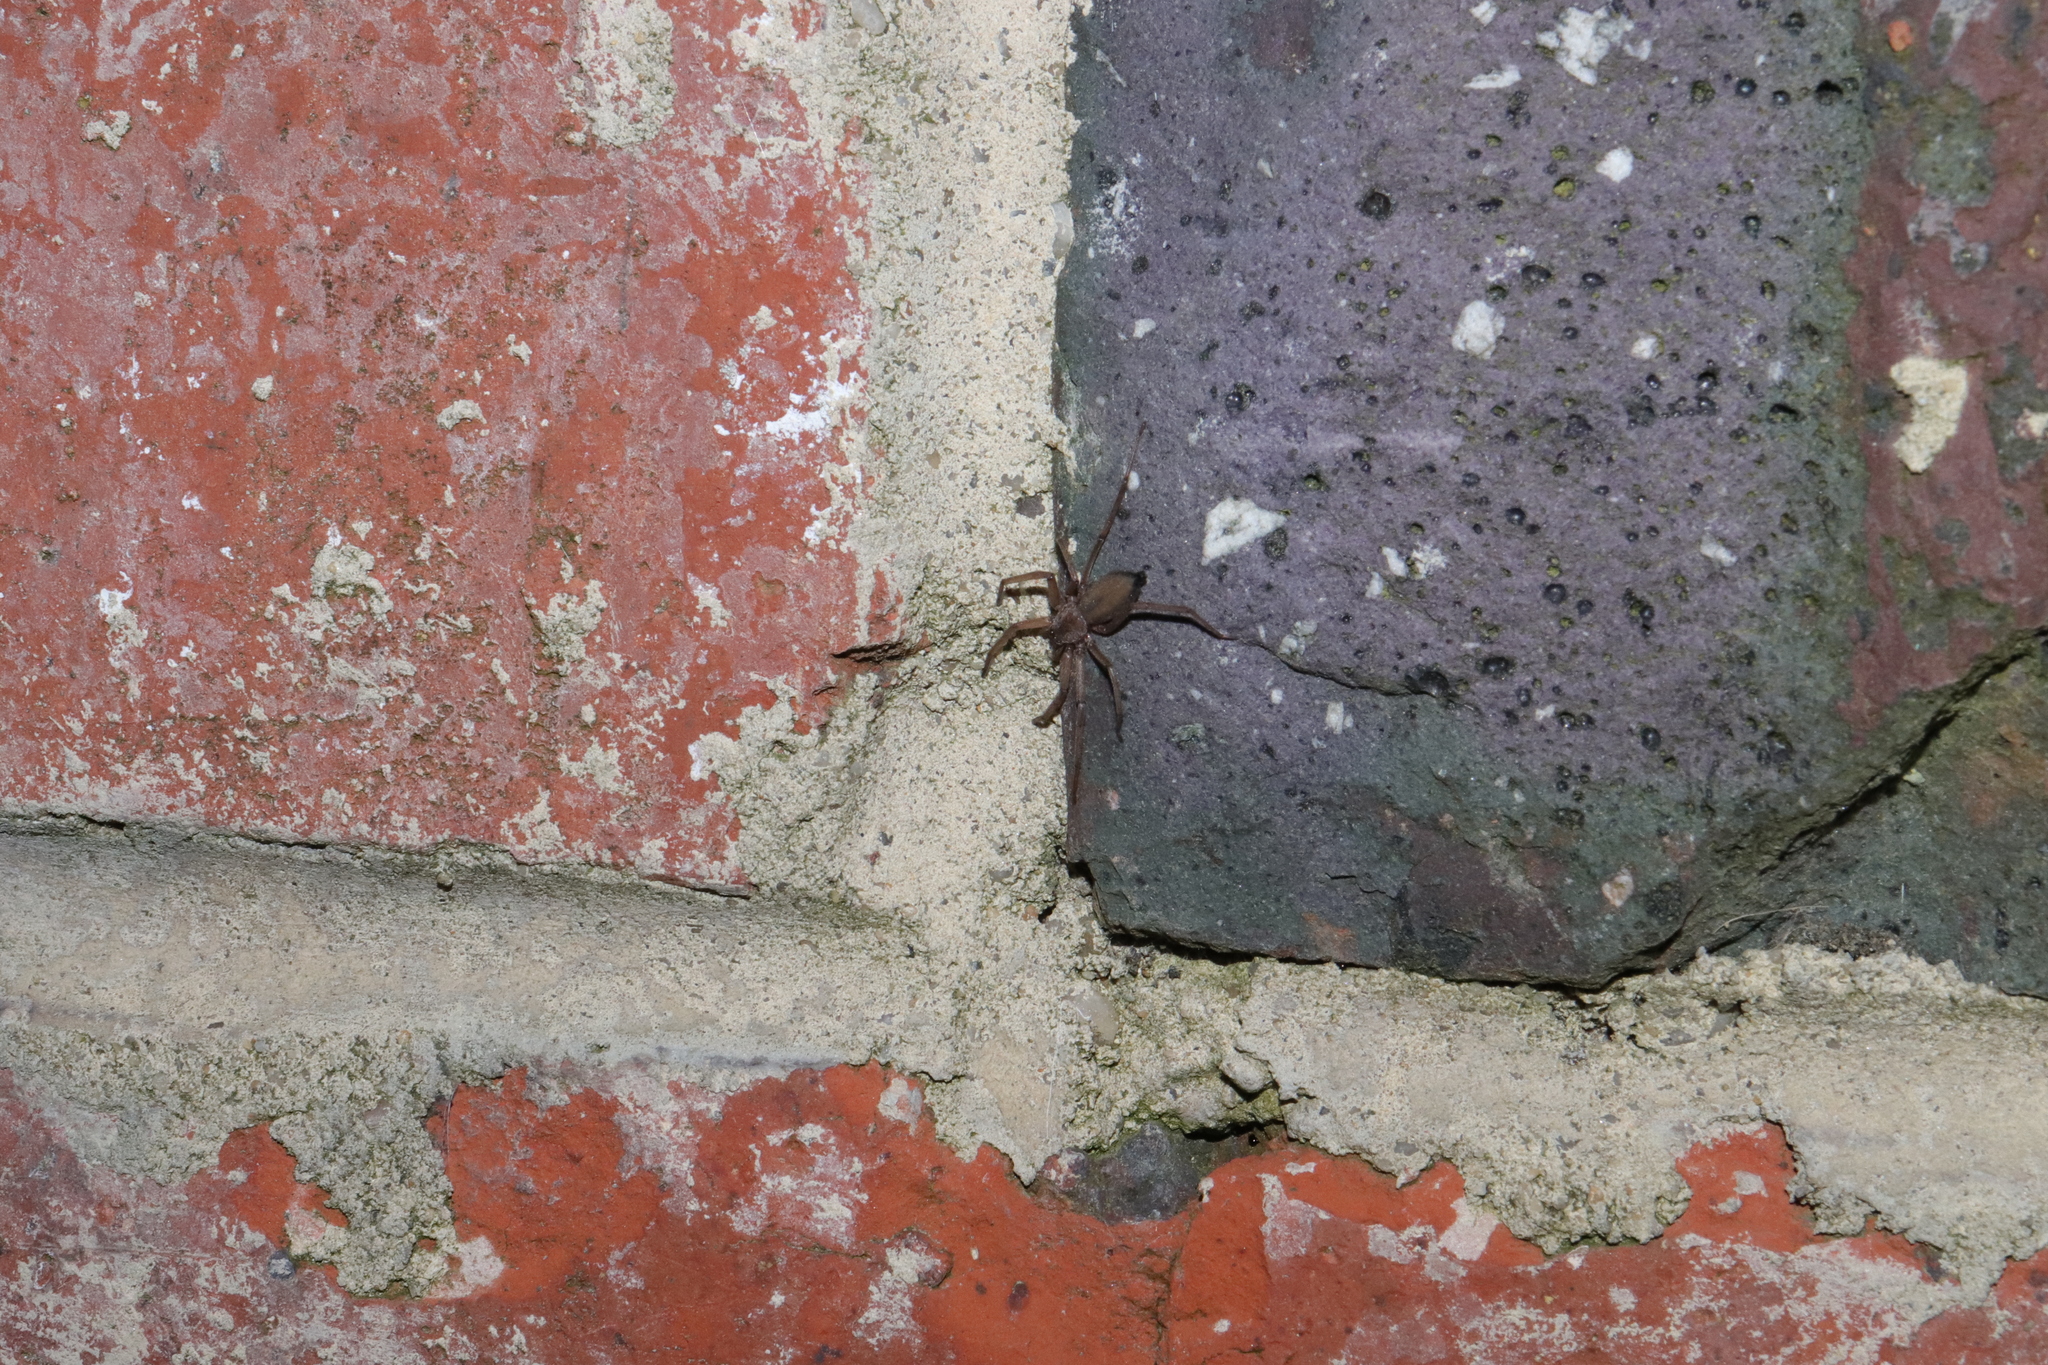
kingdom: Animalia
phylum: Arthropoda
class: Arachnida
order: Araneae
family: Trochanteriidae
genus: Hemicloea
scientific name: Hemicloea rogenhoferi
